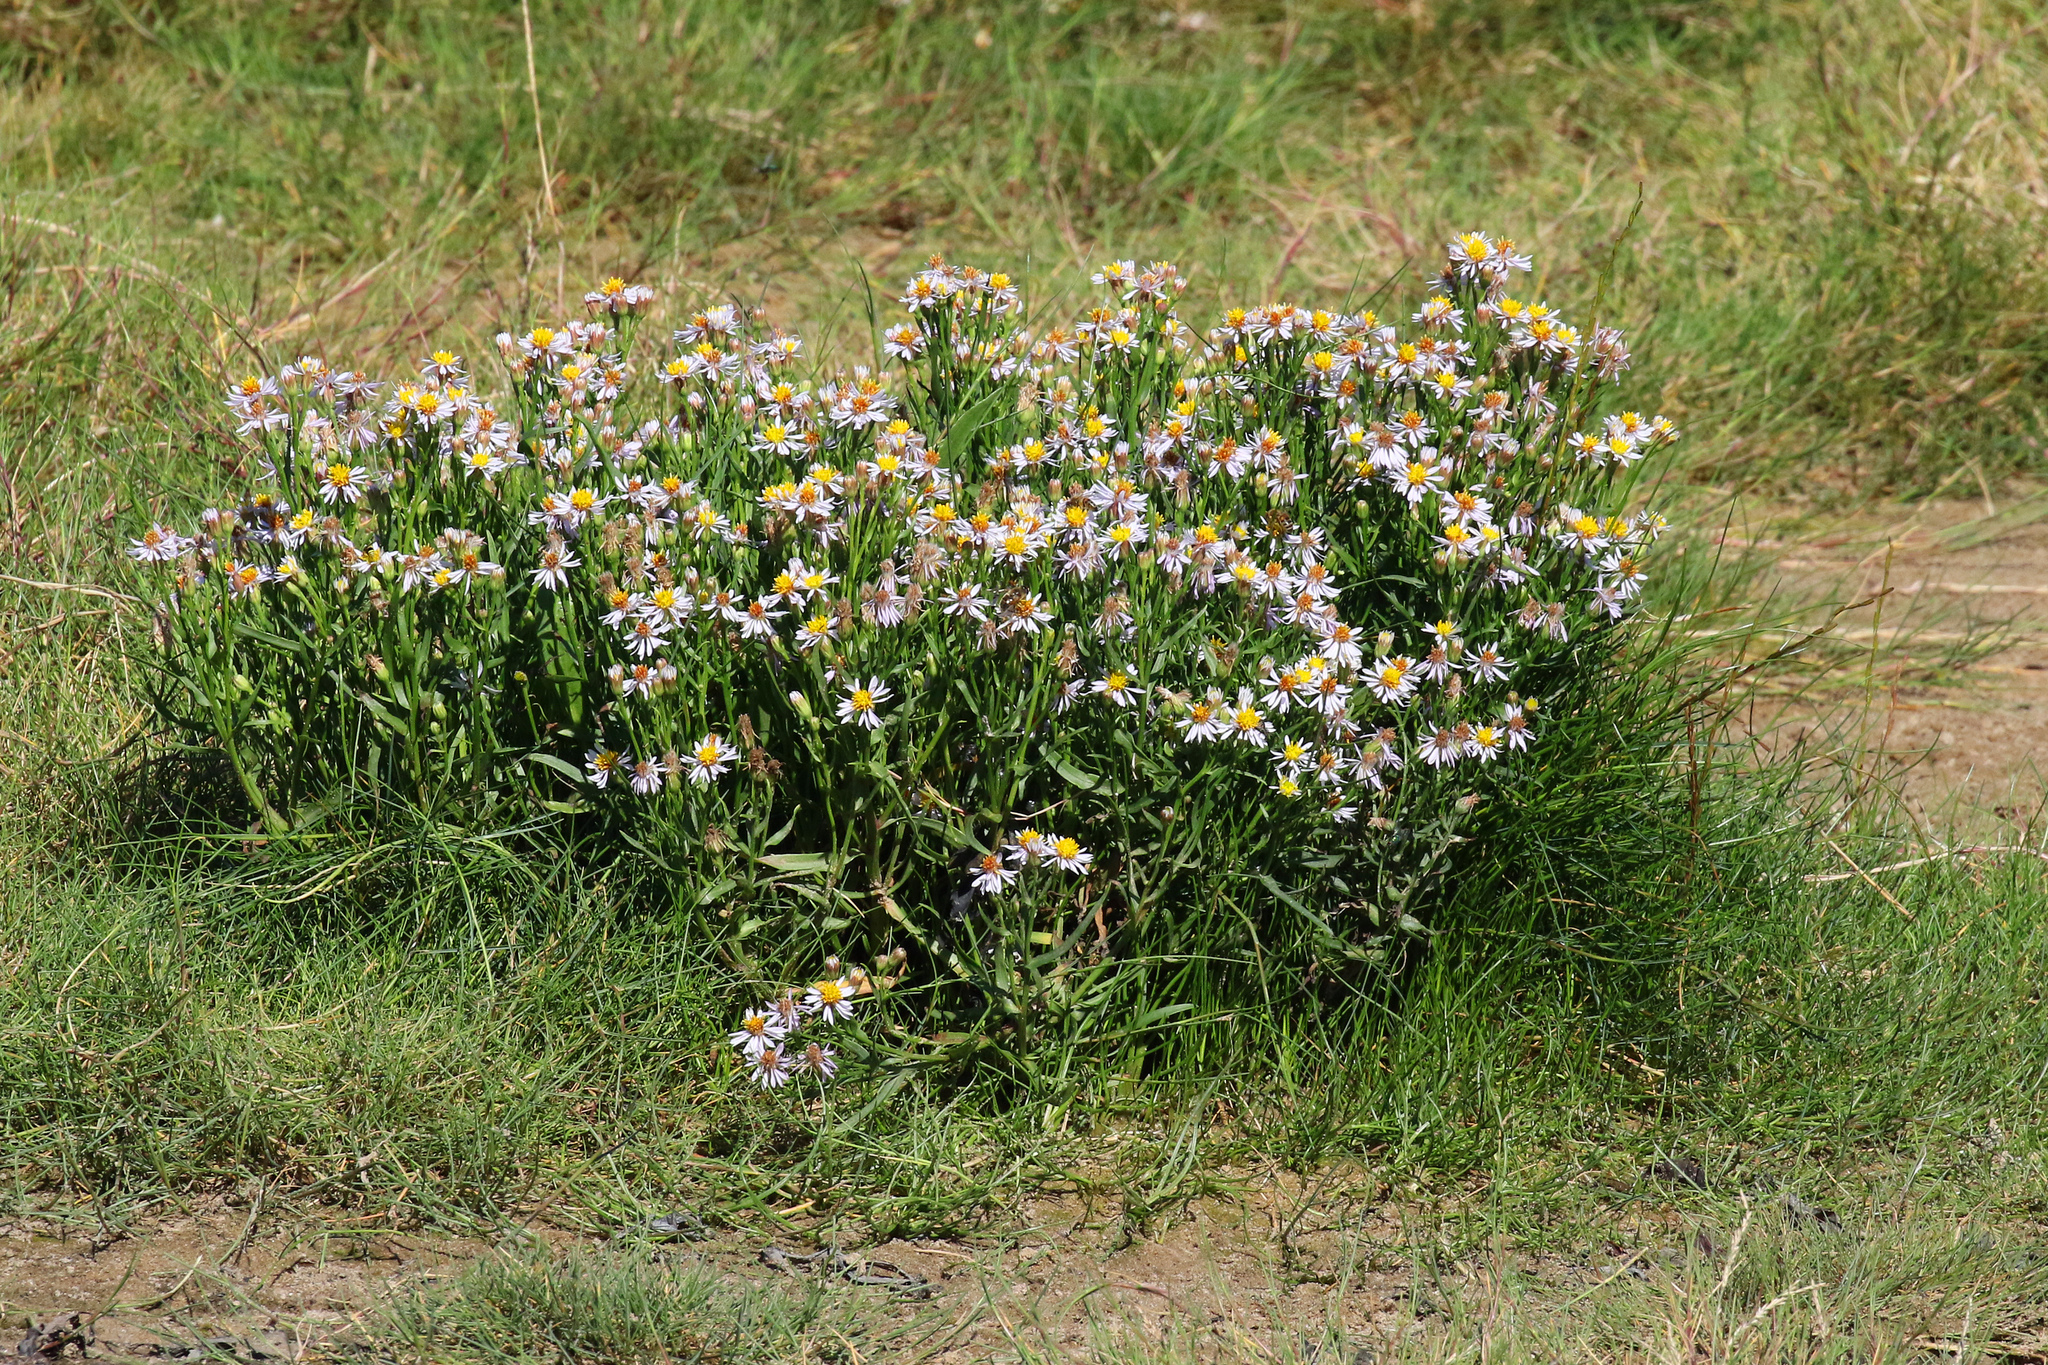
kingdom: Plantae
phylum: Tracheophyta
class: Magnoliopsida
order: Asterales
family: Asteraceae
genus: Tripolium
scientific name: Tripolium pannonicum
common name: Sea aster
